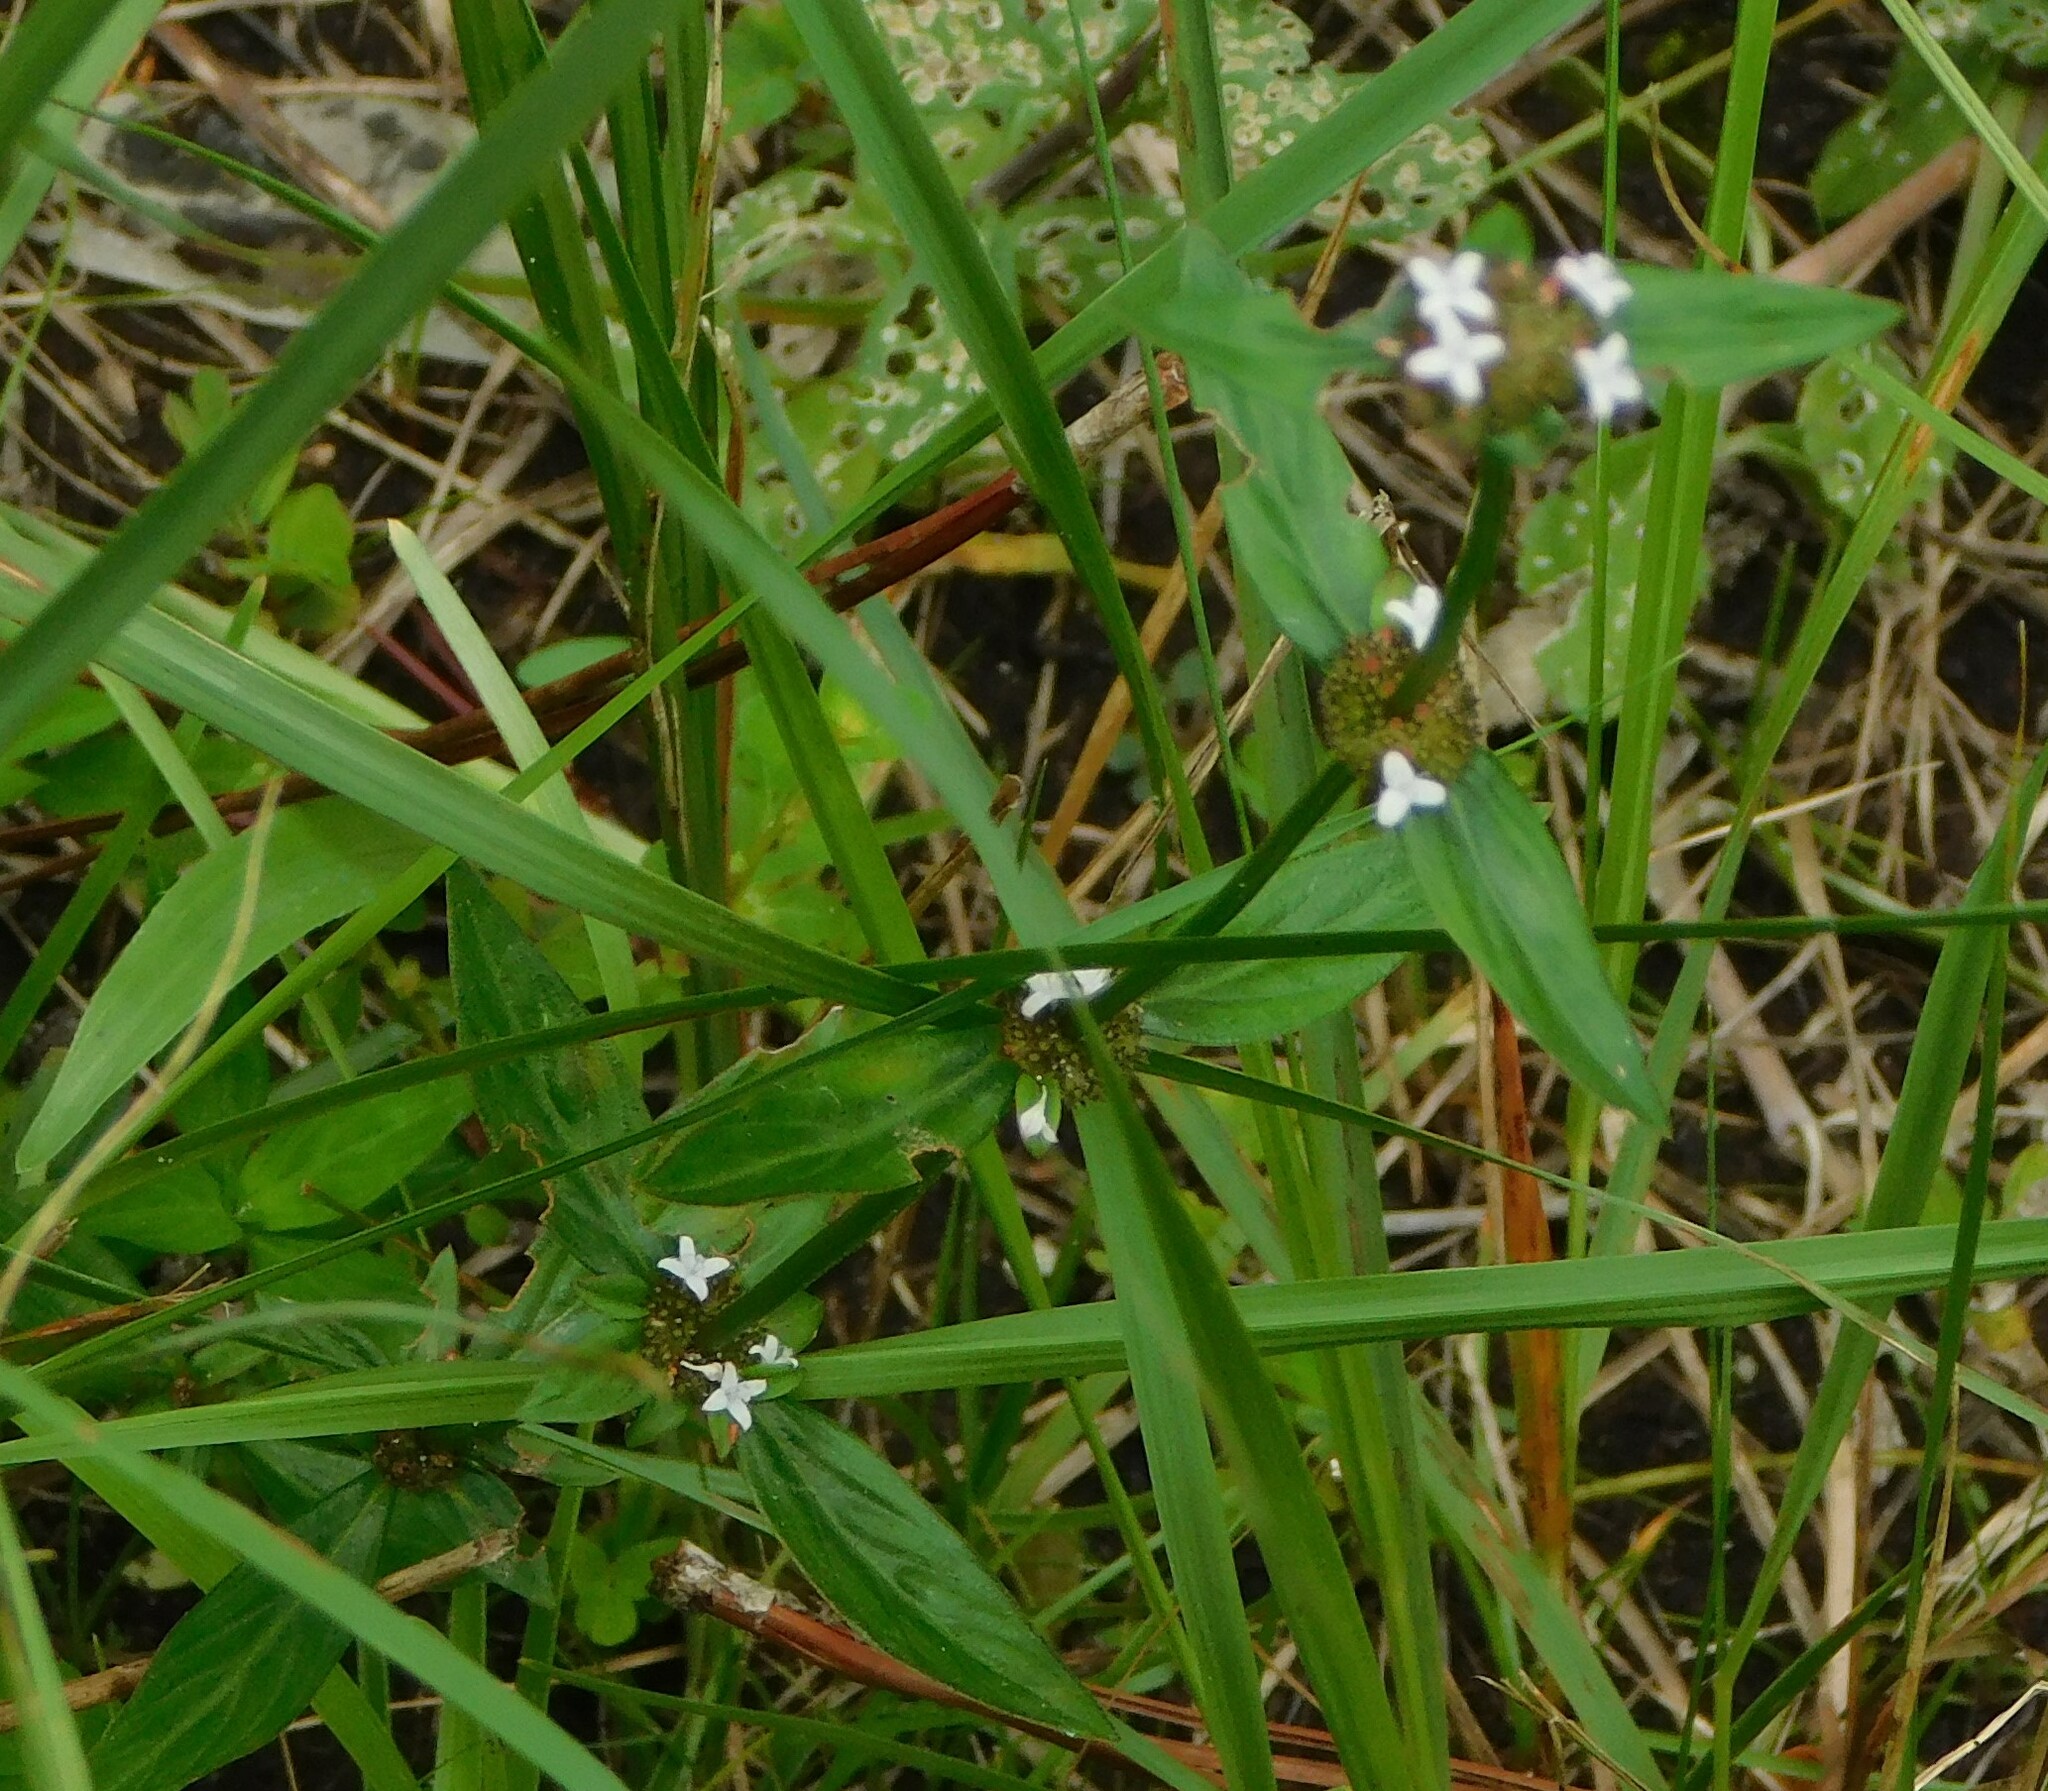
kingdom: Plantae
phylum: Tracheophyta
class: Magnoliopsida
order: Gentianales
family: Rubiaceae
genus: Spermacoce
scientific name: Spermacoce remota
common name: Woodland false buttonweed
